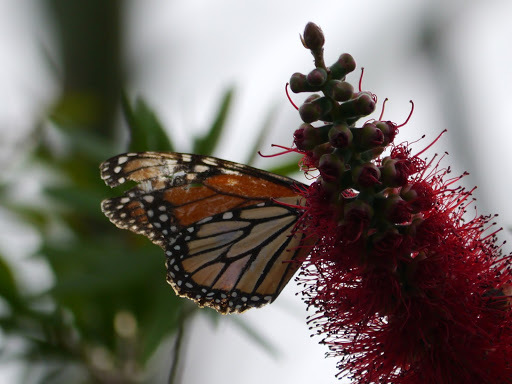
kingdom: Animalia
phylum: Arthropoda
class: Insecta
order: Lepidoptera
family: Nymphalidae
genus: Danaus
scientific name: Danaus plexippus
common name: Monarch
